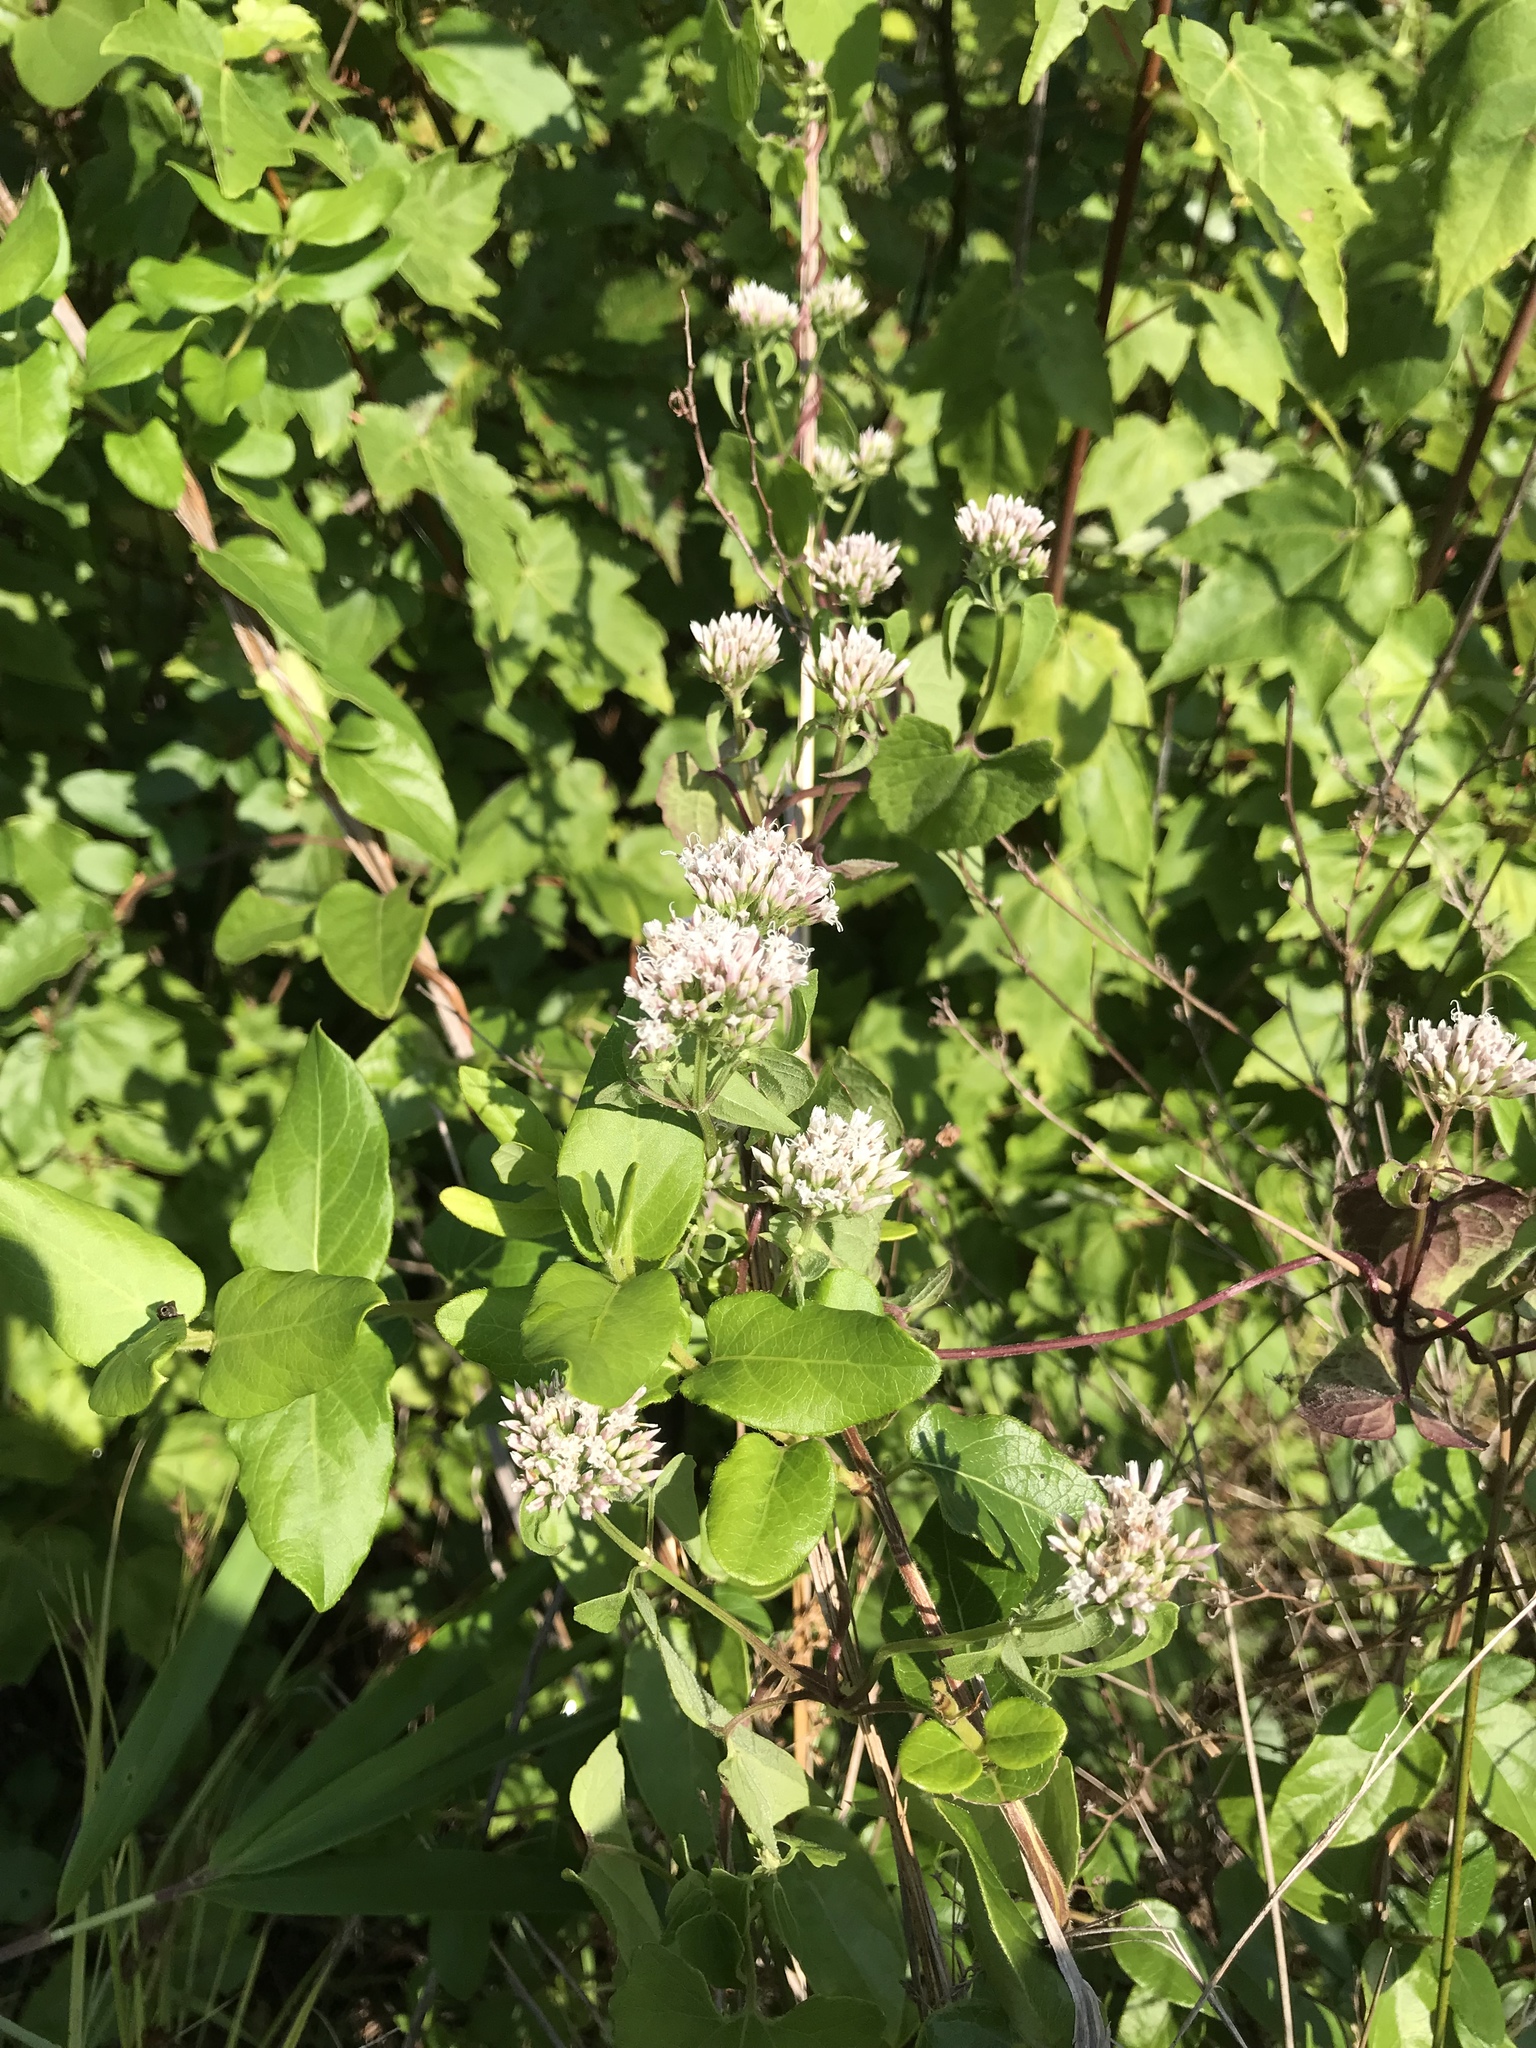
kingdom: Plantae
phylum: Tracheophyta
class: Magnoliopsida
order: Asterales
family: Asteraceae
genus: Mikania
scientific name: Mikania scandens
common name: Climbing hempvine
